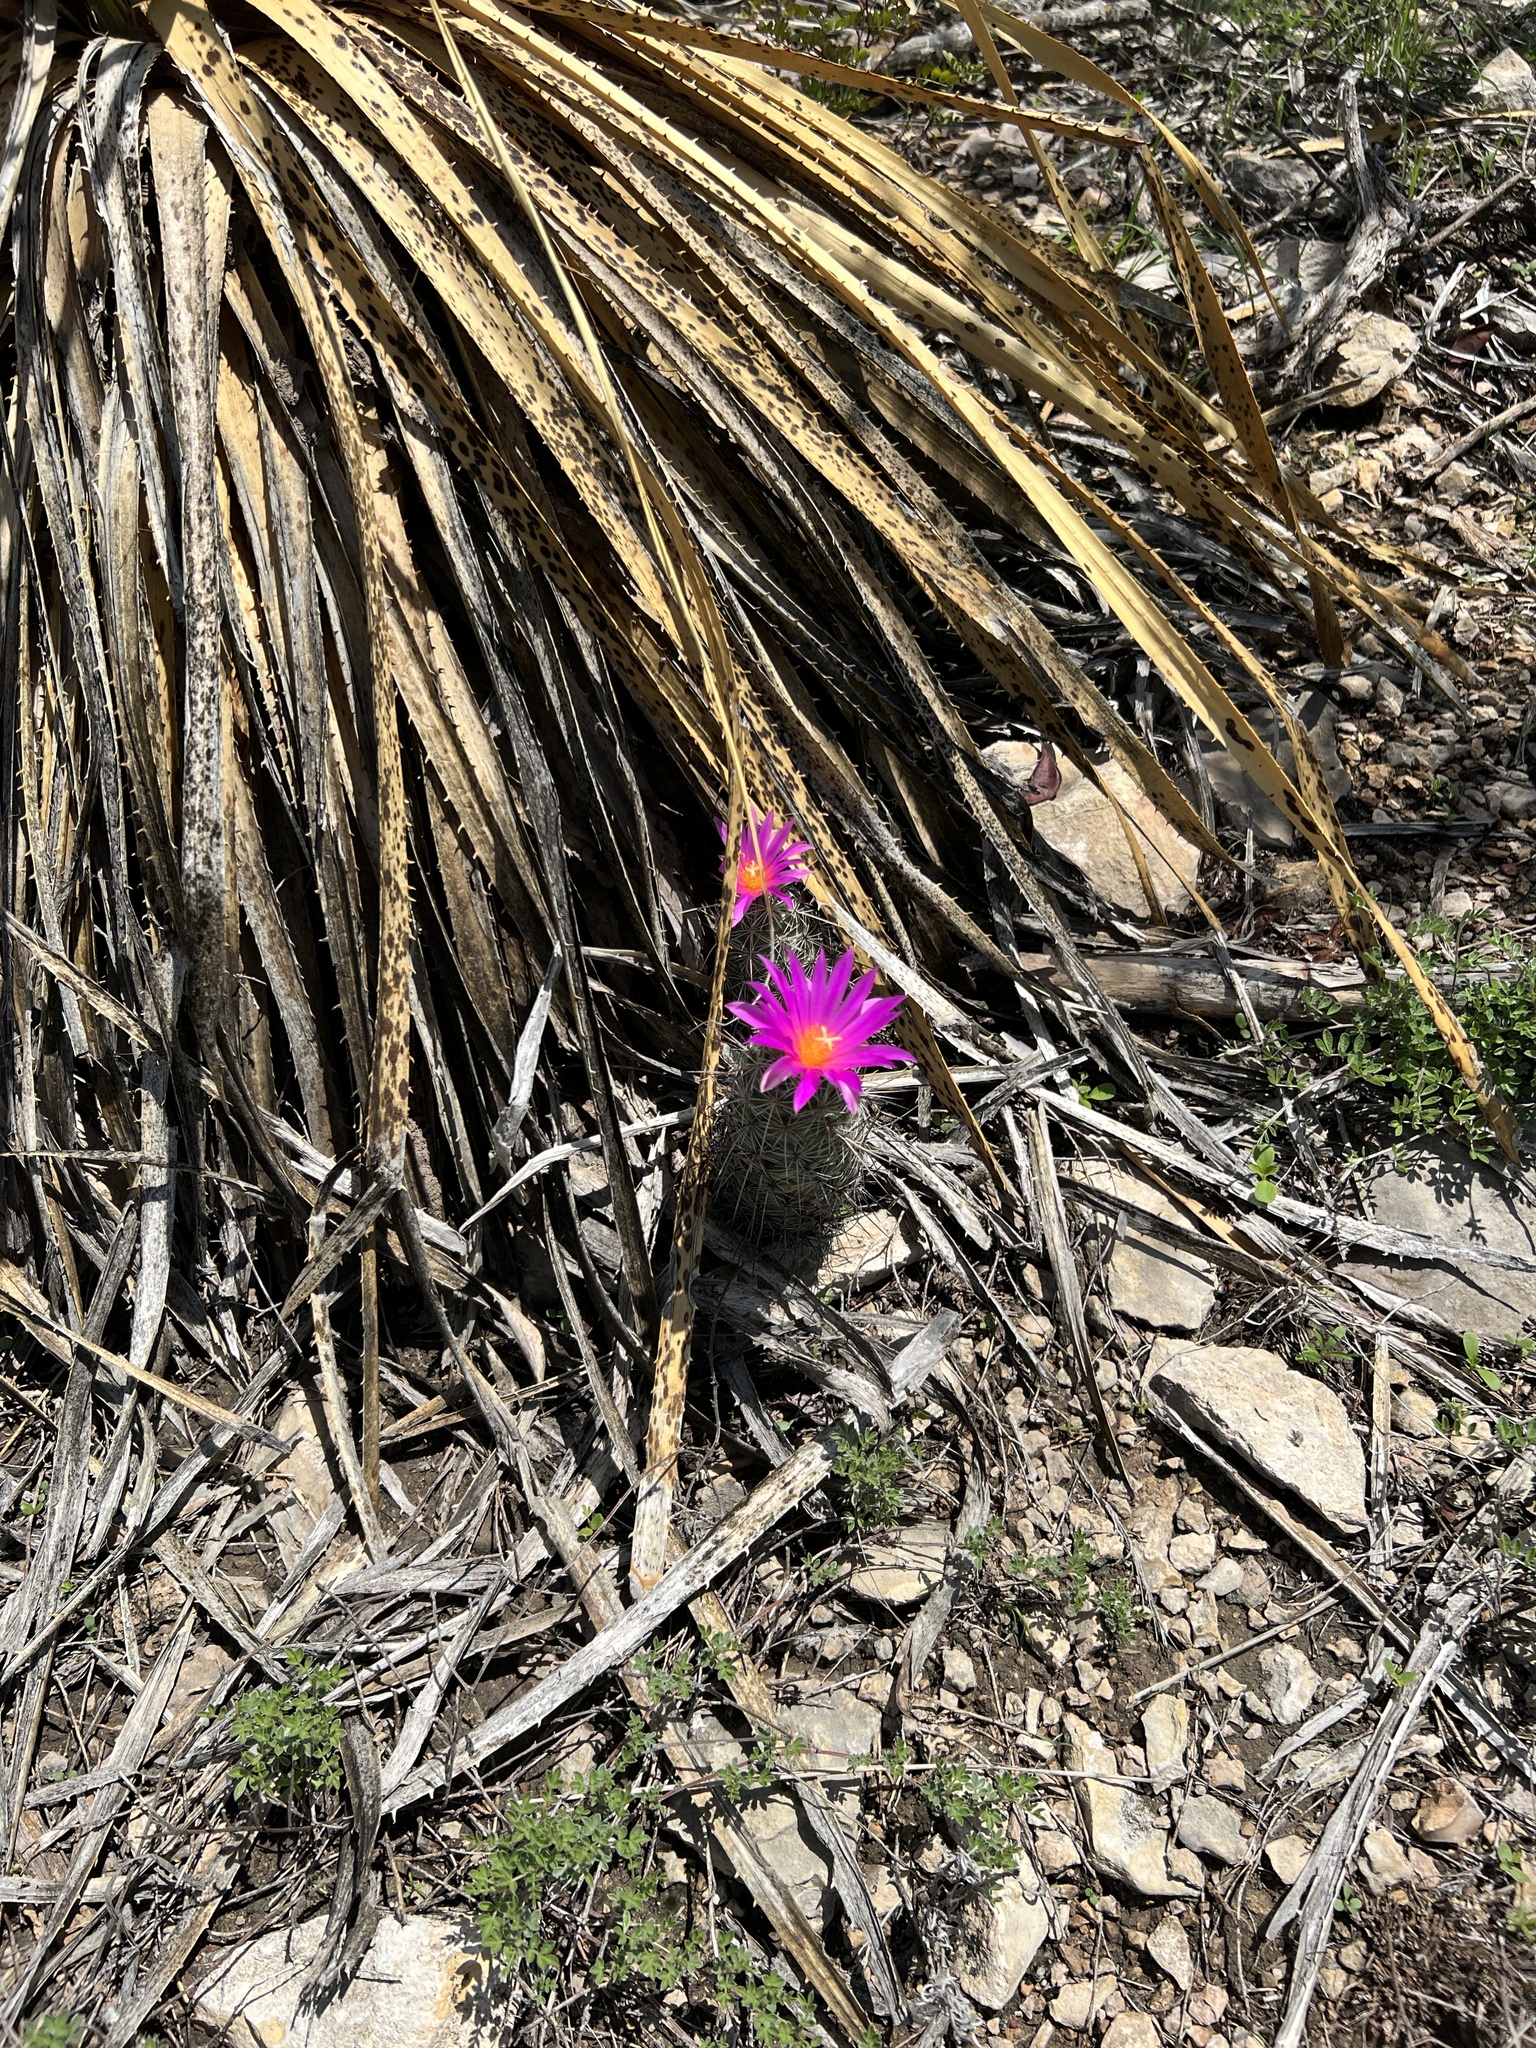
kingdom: Plantae
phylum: Tracheophyta
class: Magnoliopsida
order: Caryophyllales
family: Cactaceae
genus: Cochemiea
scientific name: Cochemiea conoidea
